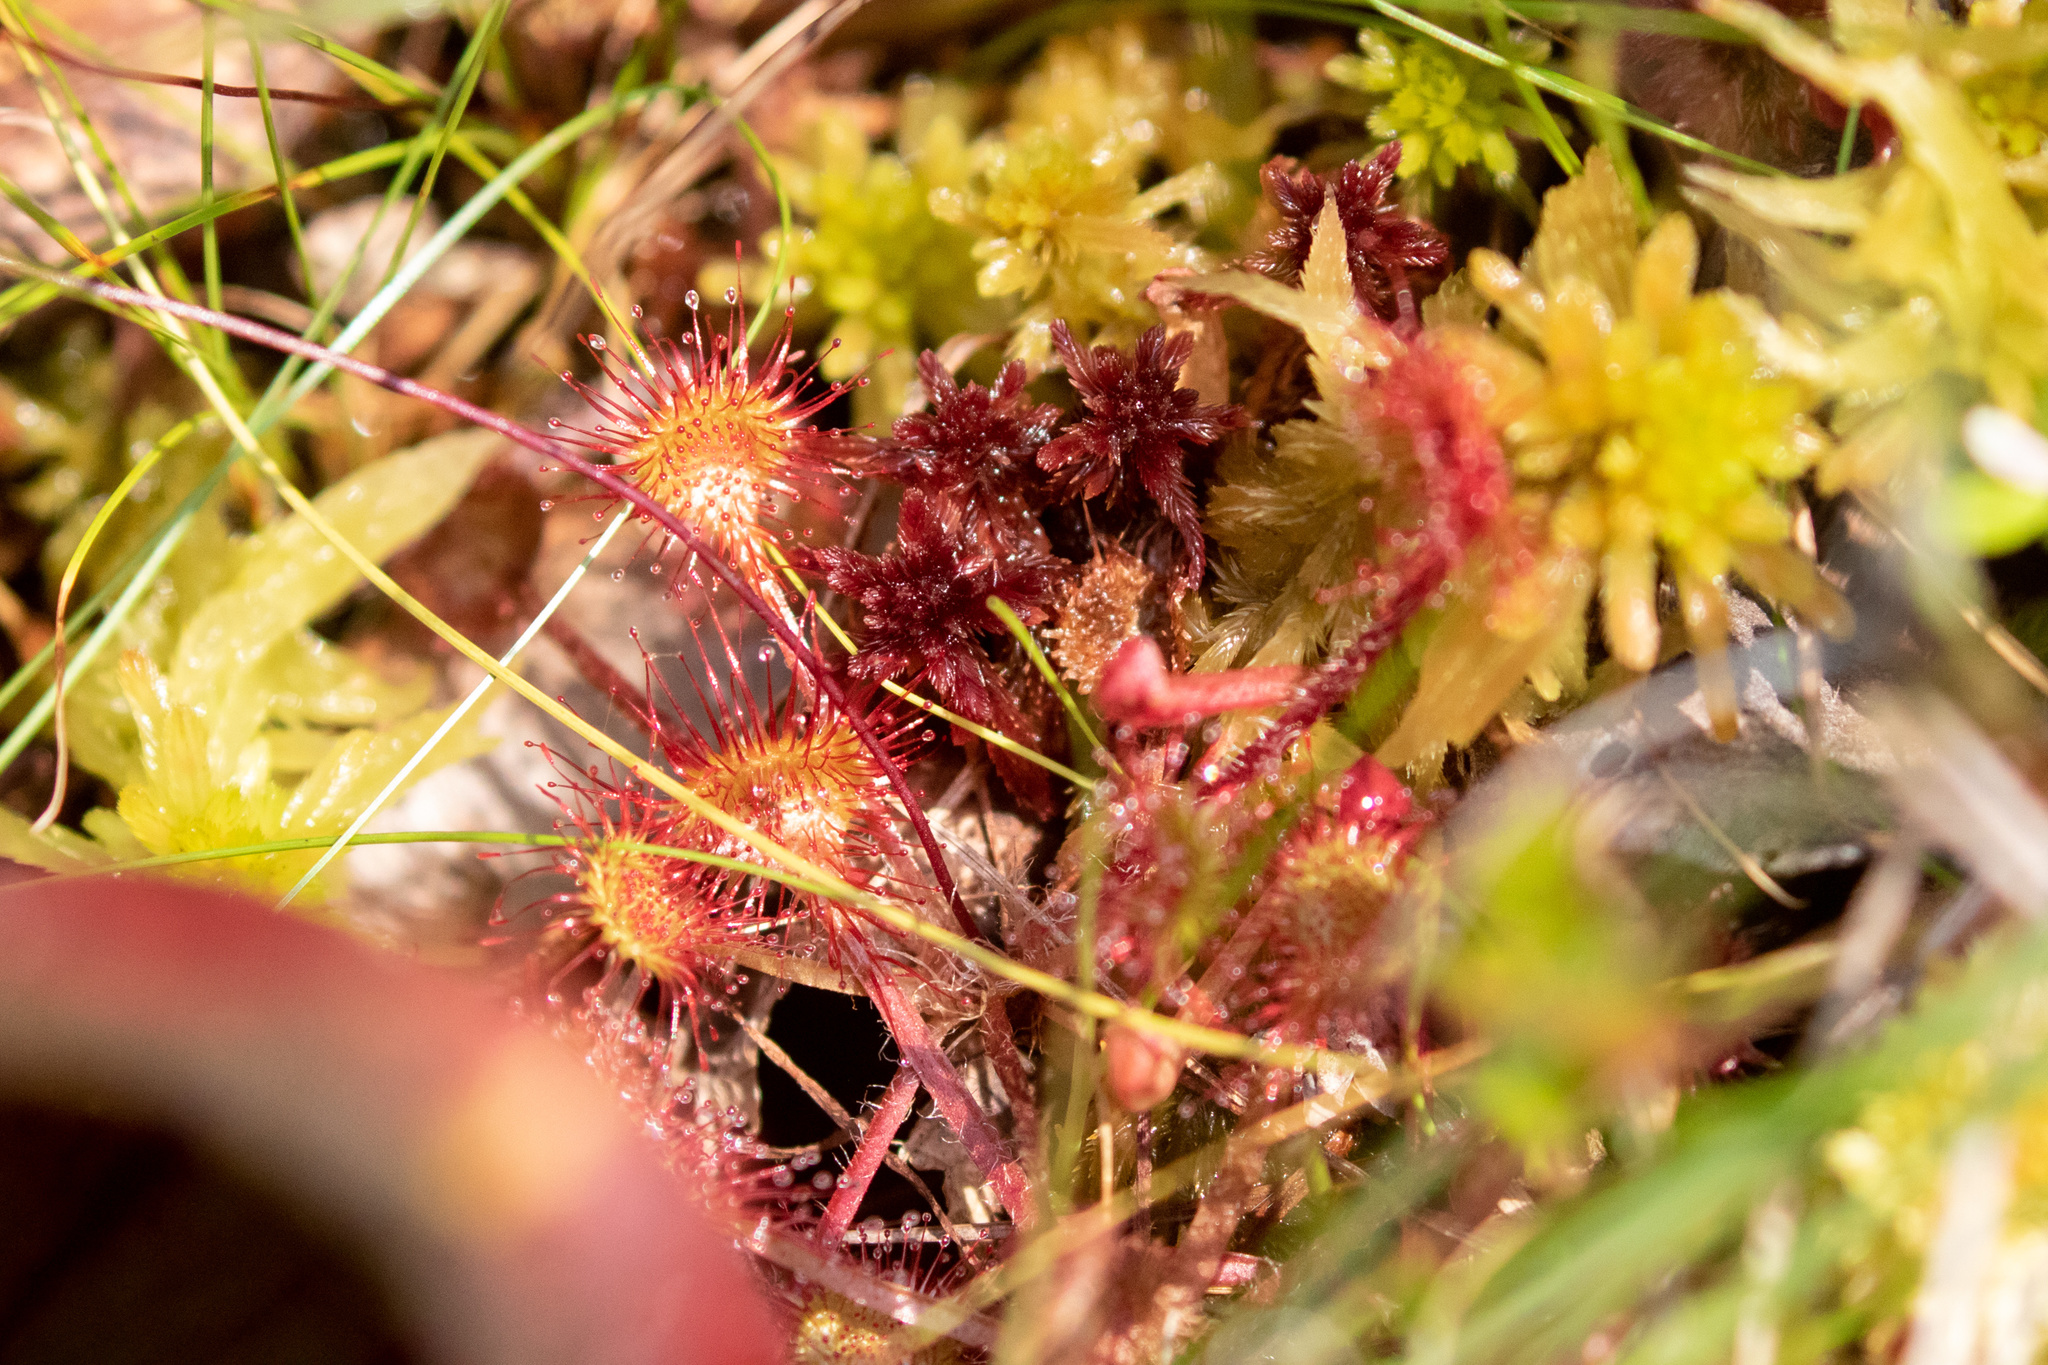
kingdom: Plantae
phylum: Tracheophyta
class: Magnoliopsida
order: Caryophyllales
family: Droseraceae
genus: Drosera
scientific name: Drosera rotundifolia
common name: Round-leaved sundew
